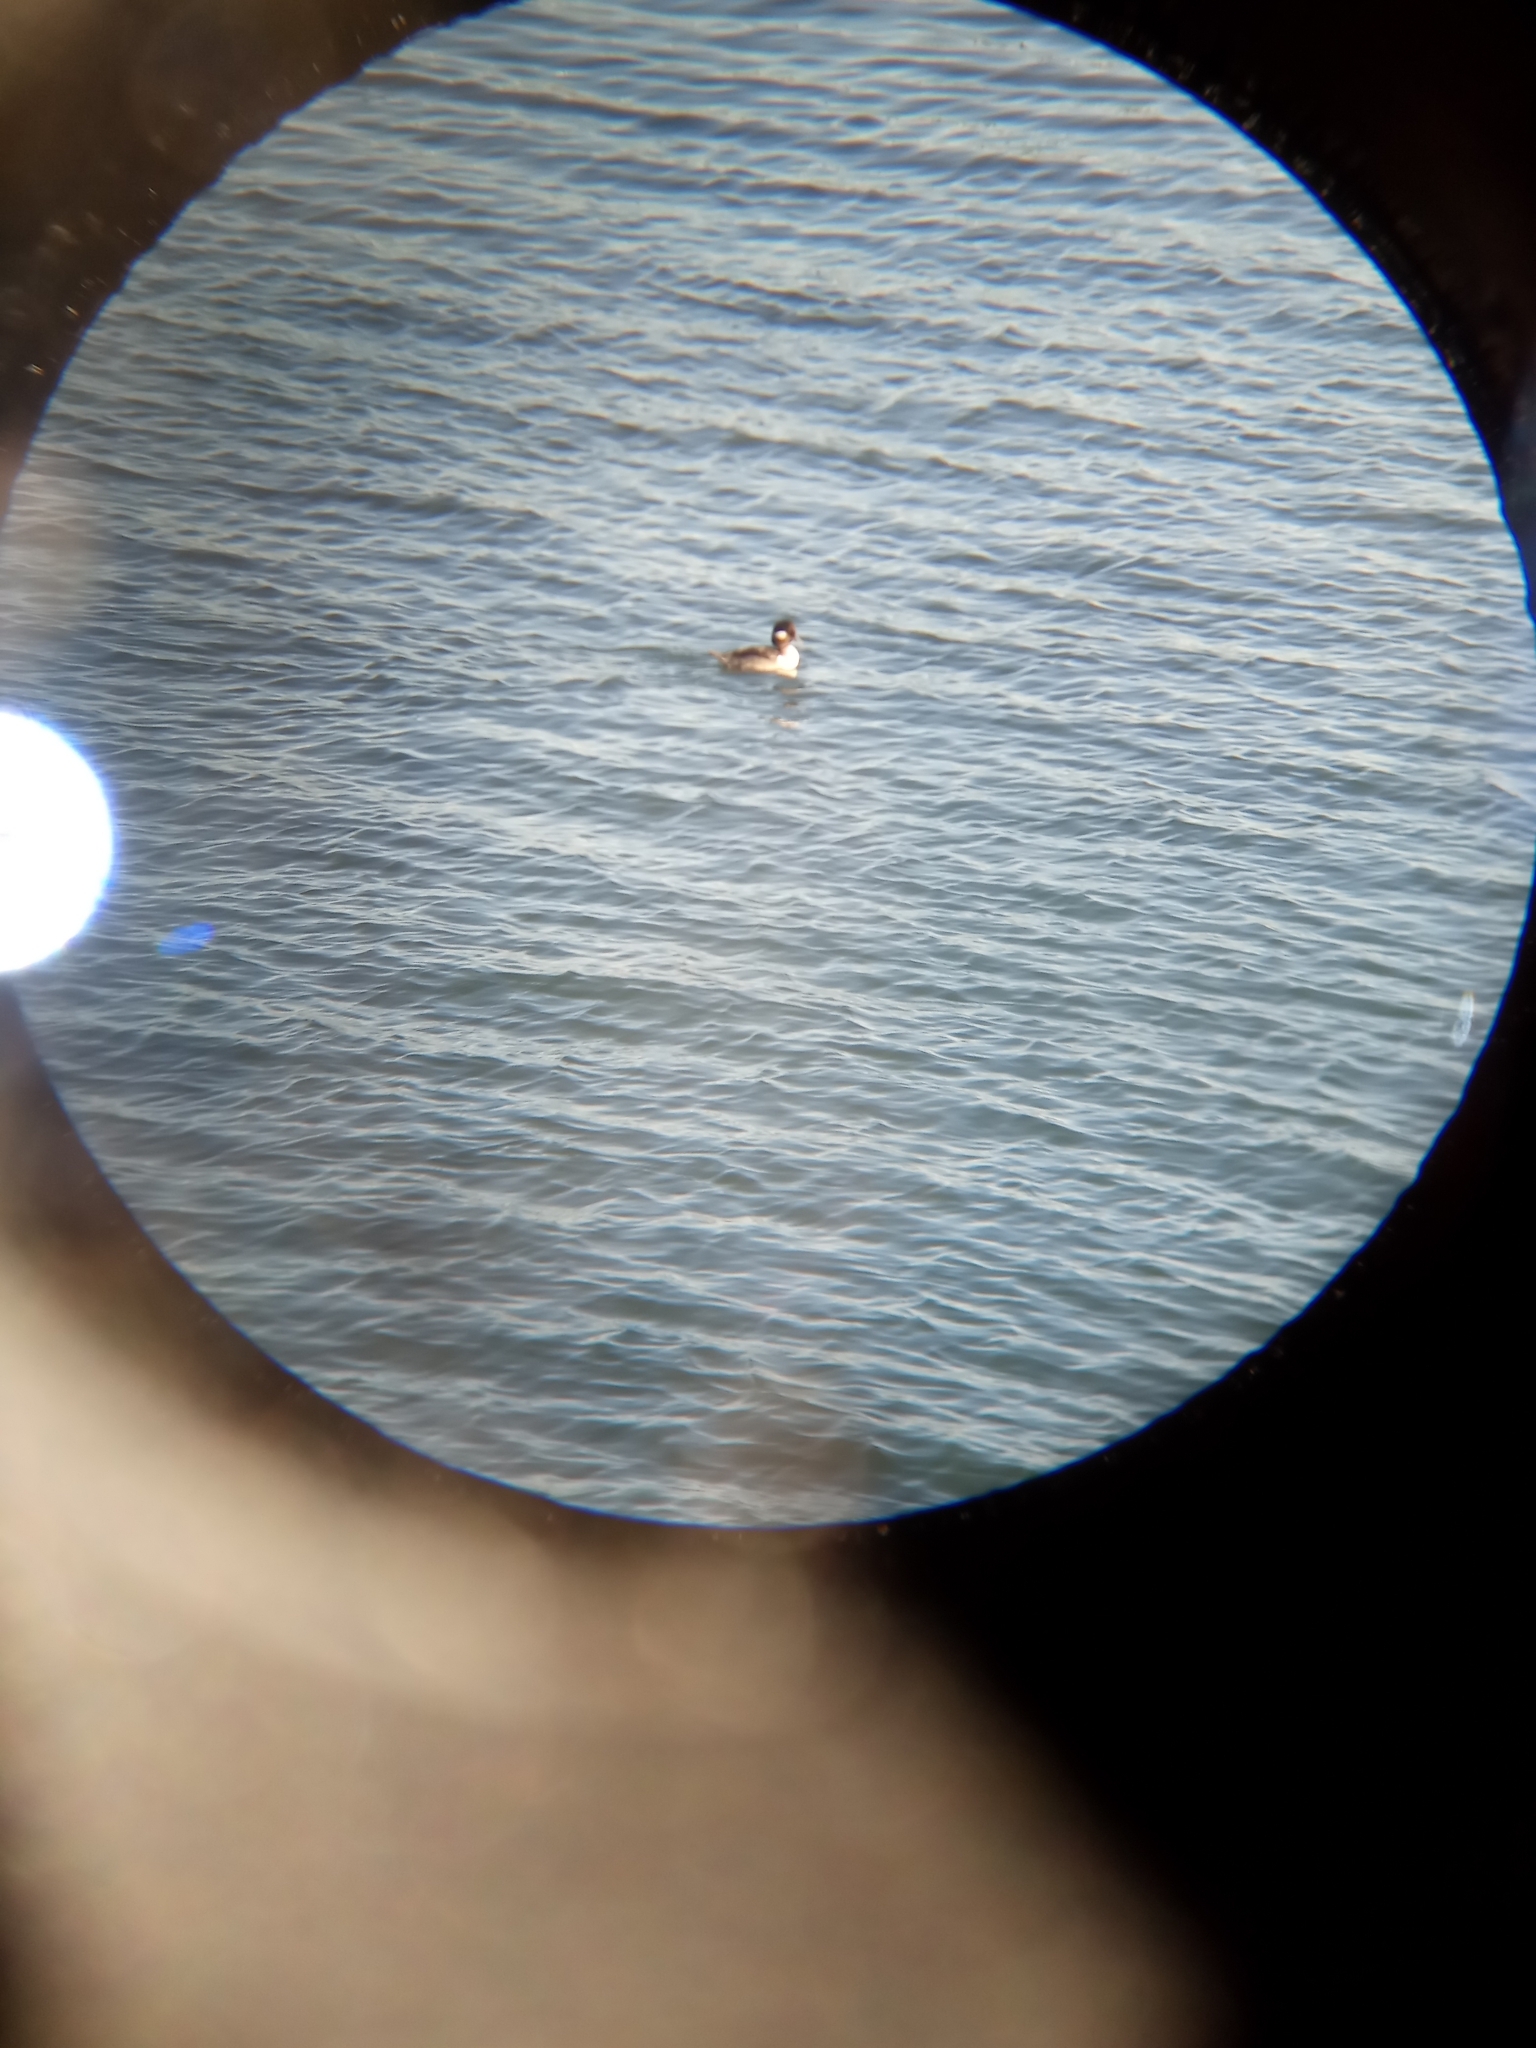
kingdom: Animalia
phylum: Chordata
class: Aves
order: Anseriformes
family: Anatidae
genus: Bucephala
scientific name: Bucephala albeola
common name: Bufflehead
